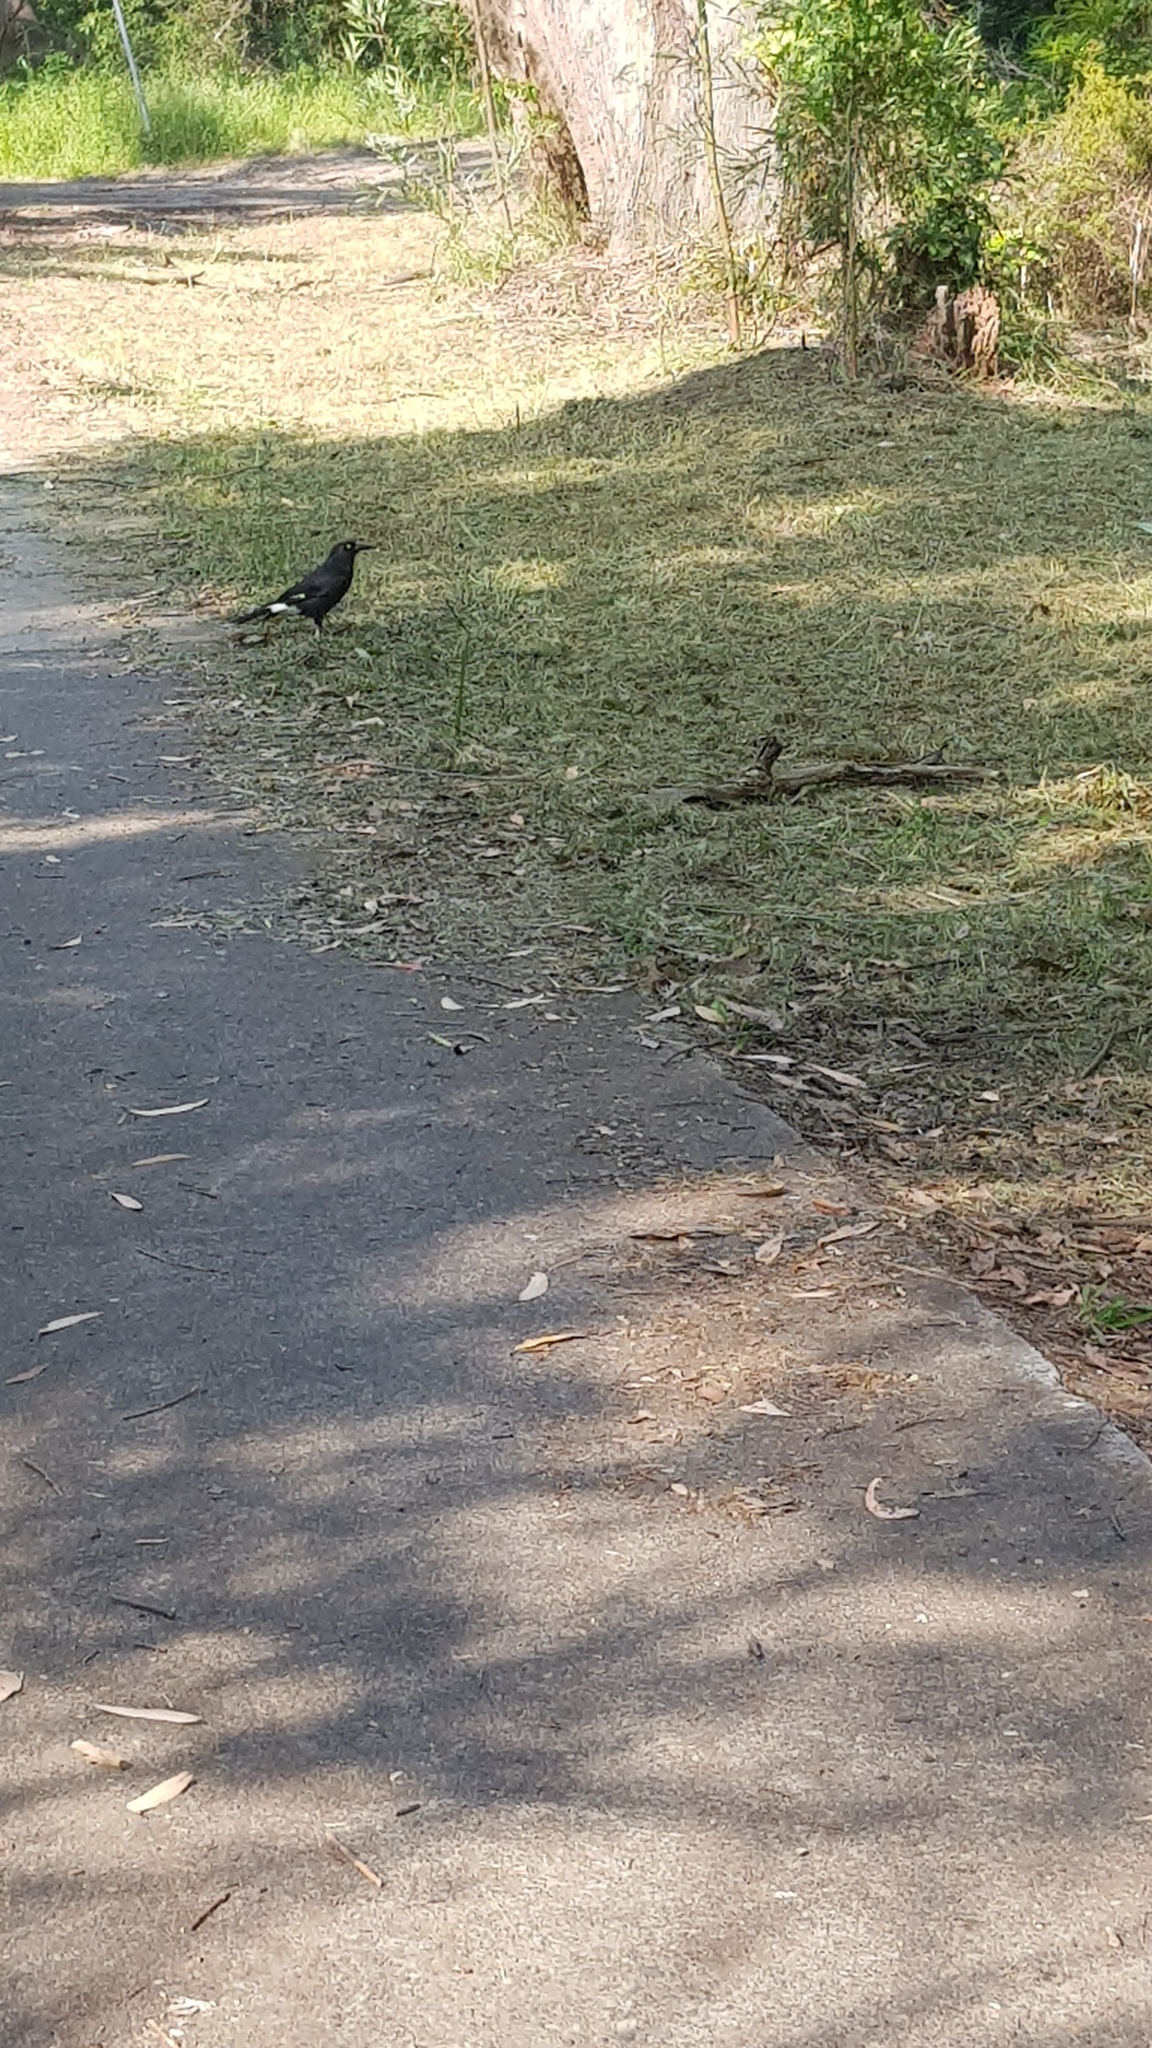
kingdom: Animalia
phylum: Chordata
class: Aves
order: Passeriformes
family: Cracticidae
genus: Strepera
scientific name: Strepera graculina
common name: Pied currawong
